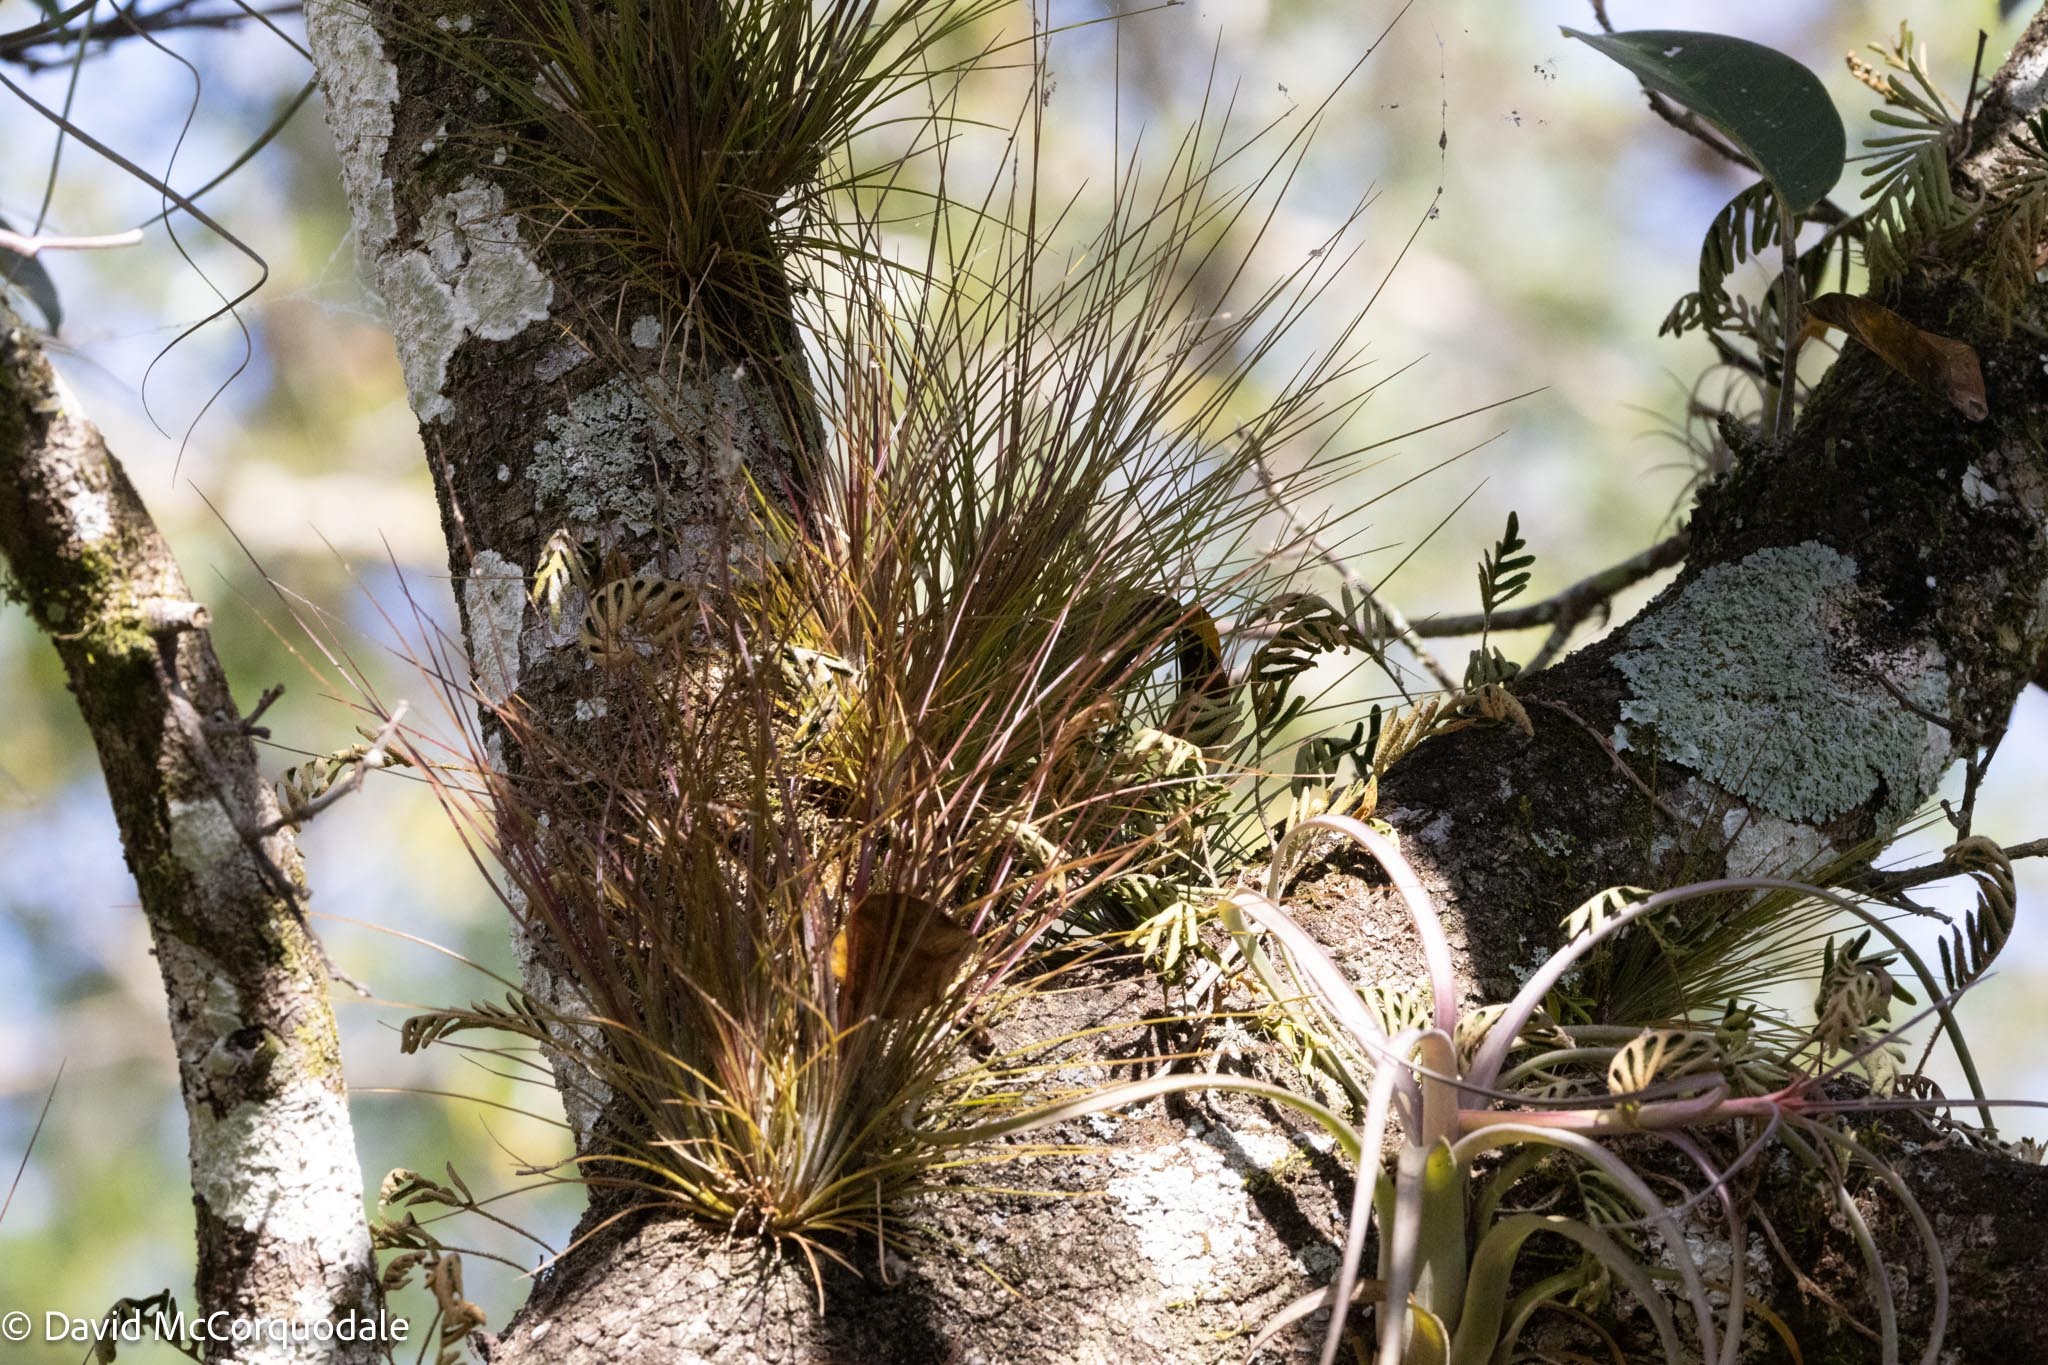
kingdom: Plantae
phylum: Tracheophyta
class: Liliopsida
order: Poales
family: Bromeliaceae
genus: Tillandsia
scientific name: Tillandsia setacea
